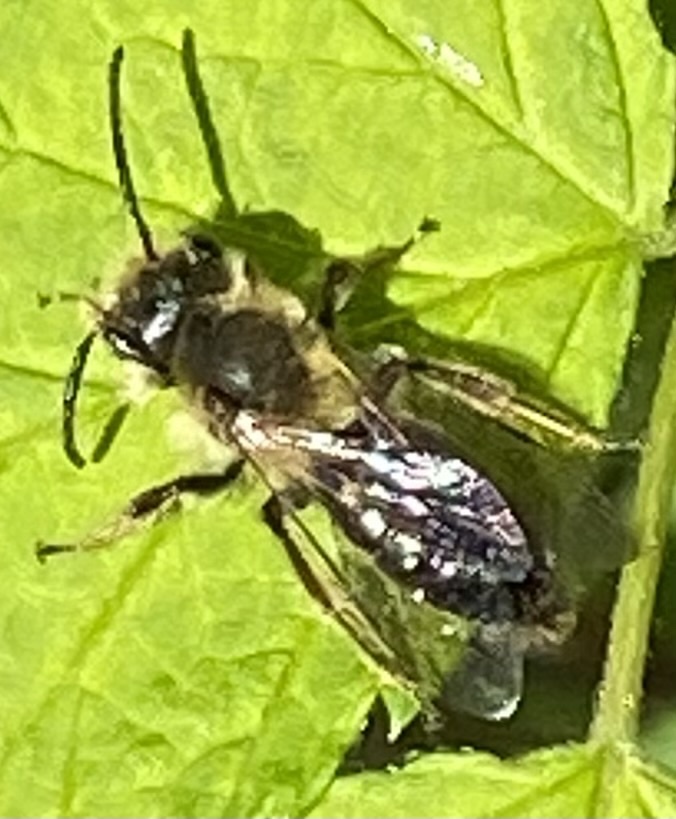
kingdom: Animalia
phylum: Arthropoda
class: Insecta
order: Hymenoptera
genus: Melandrena
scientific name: Melandrena
